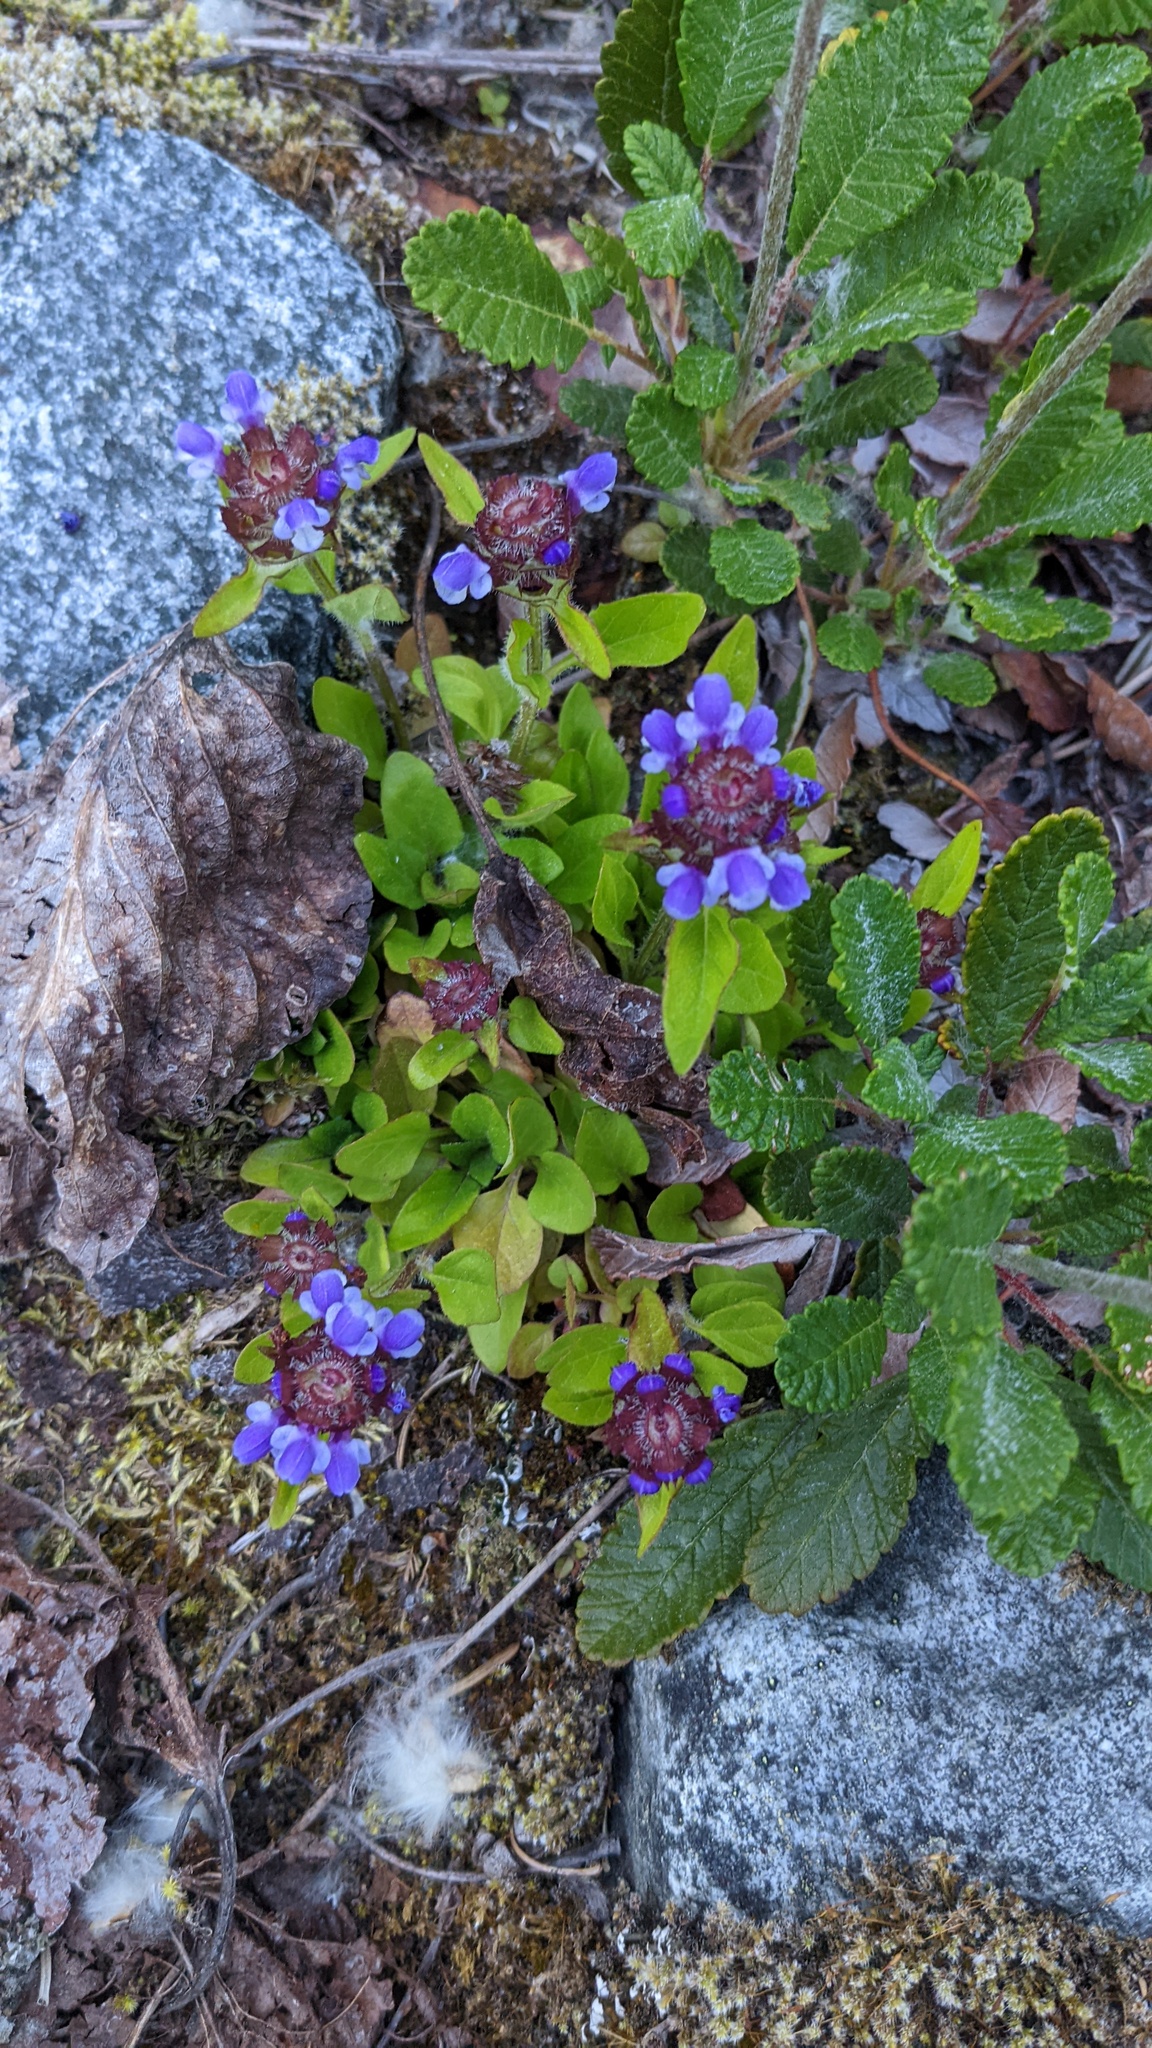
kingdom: Plantae
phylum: Tracheophyta
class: Magnoliopsida
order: Lamiales
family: Lamiaceae
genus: Prunella
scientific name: Prunella vulgaris
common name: Heal-all
